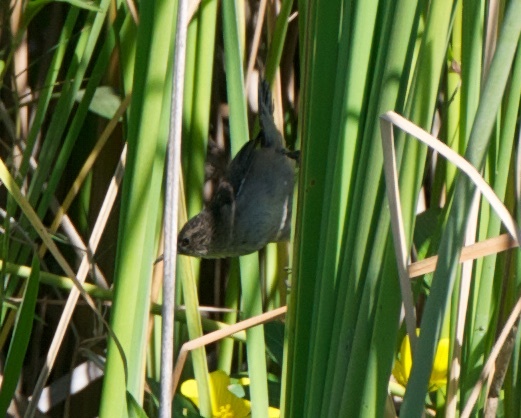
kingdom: Animalia
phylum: Chordata
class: Aves
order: Passeriformes
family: Troglodytidae
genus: Cistothorus
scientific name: Cistothorus palustris
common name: Marsh wren
